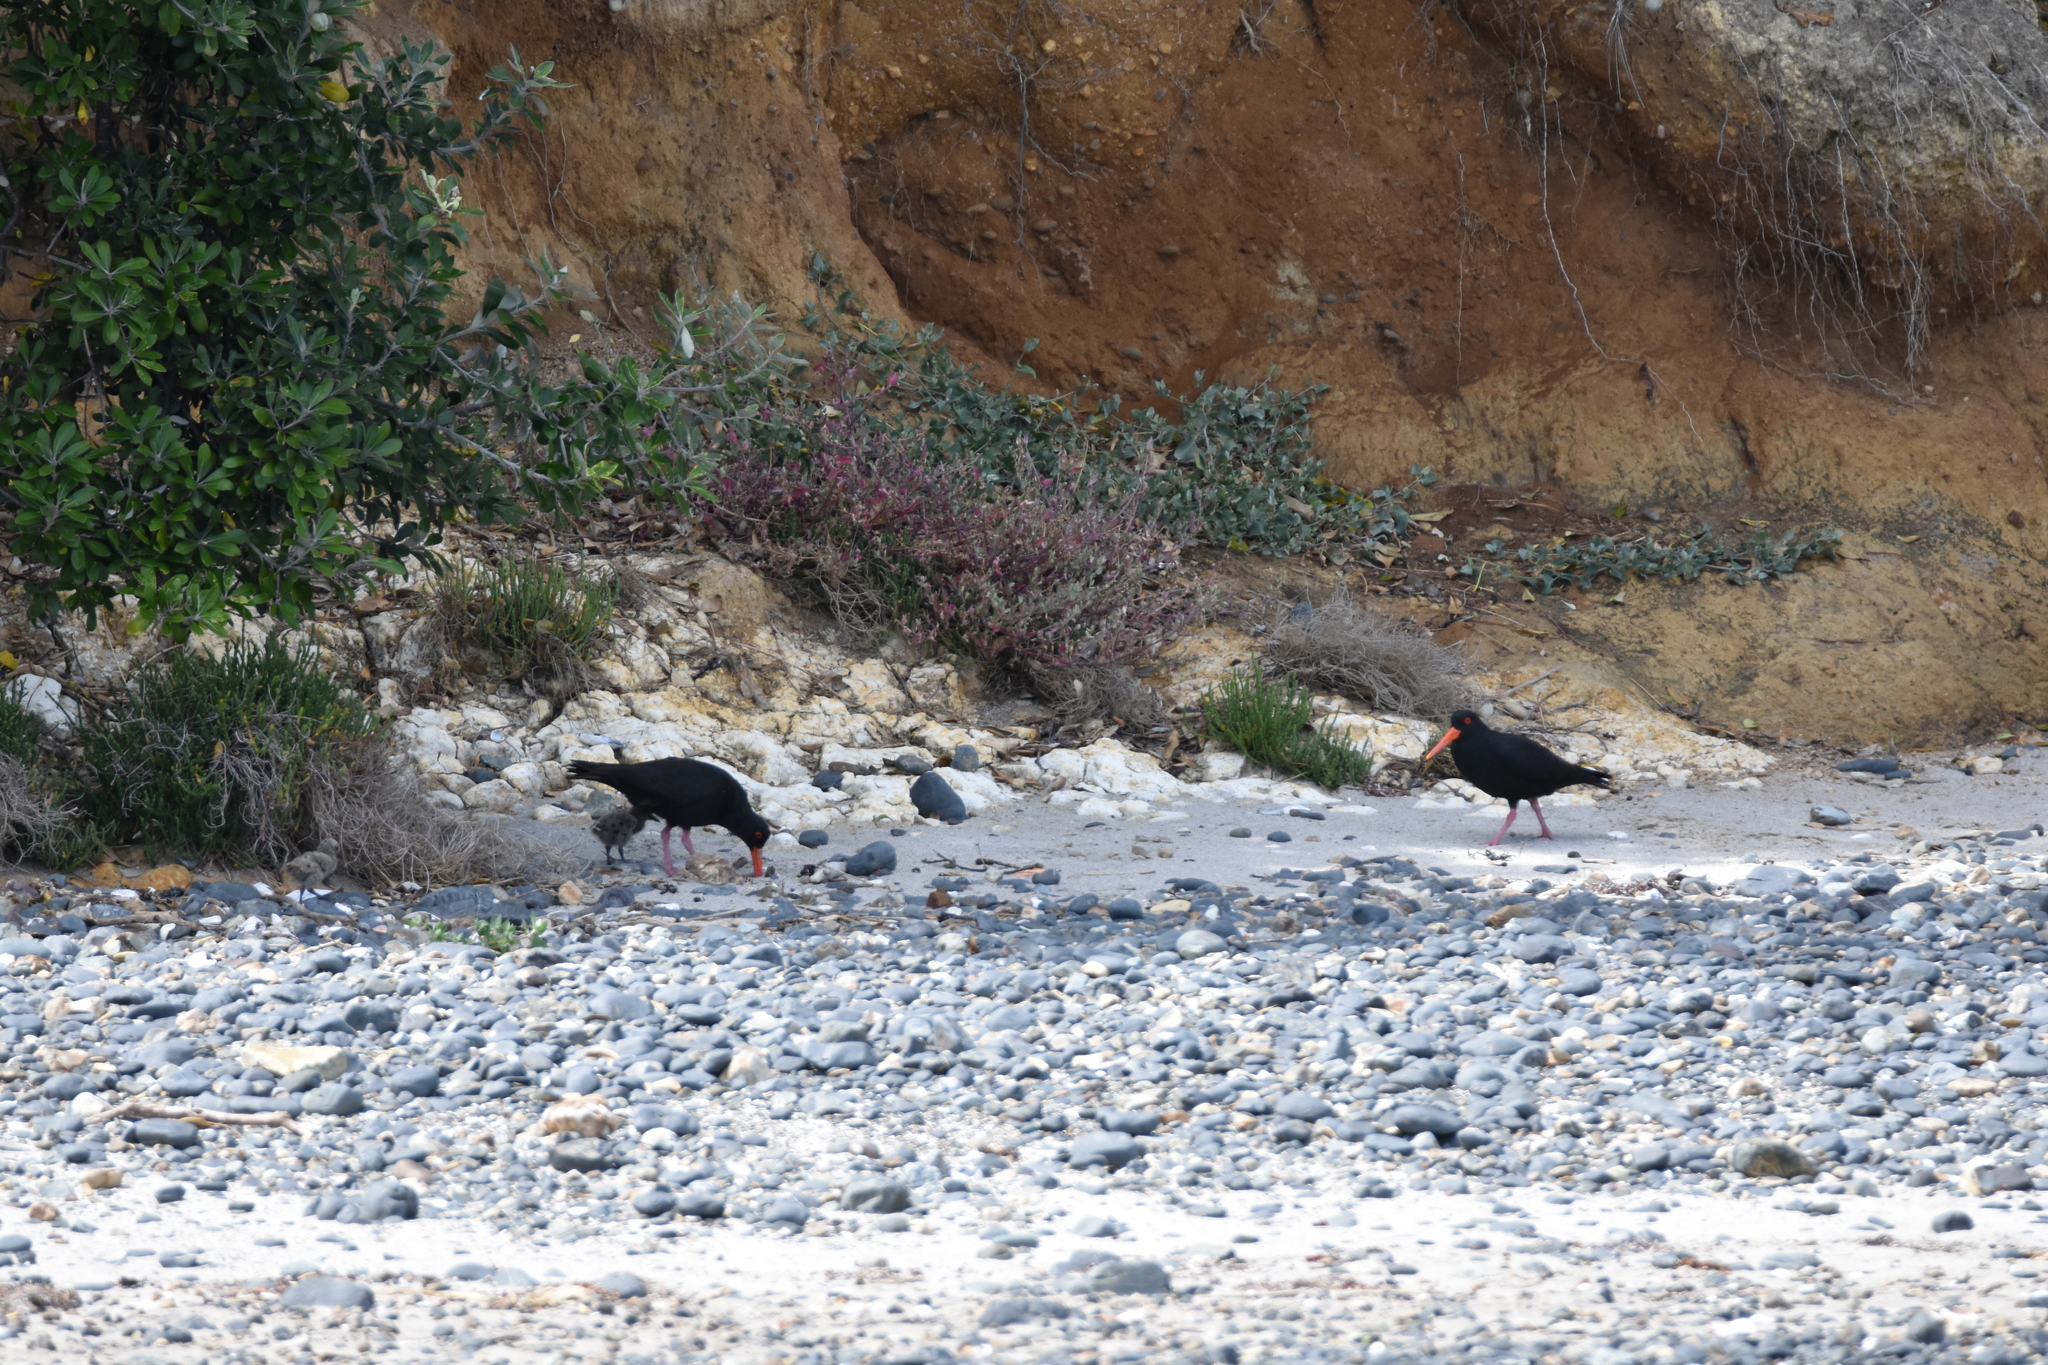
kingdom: Animalia
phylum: Chordata
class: Aves
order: Charadriiformes
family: Haematopodidae
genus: Haematopus
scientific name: Haematopus unicolor
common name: Variable oystercatcher
